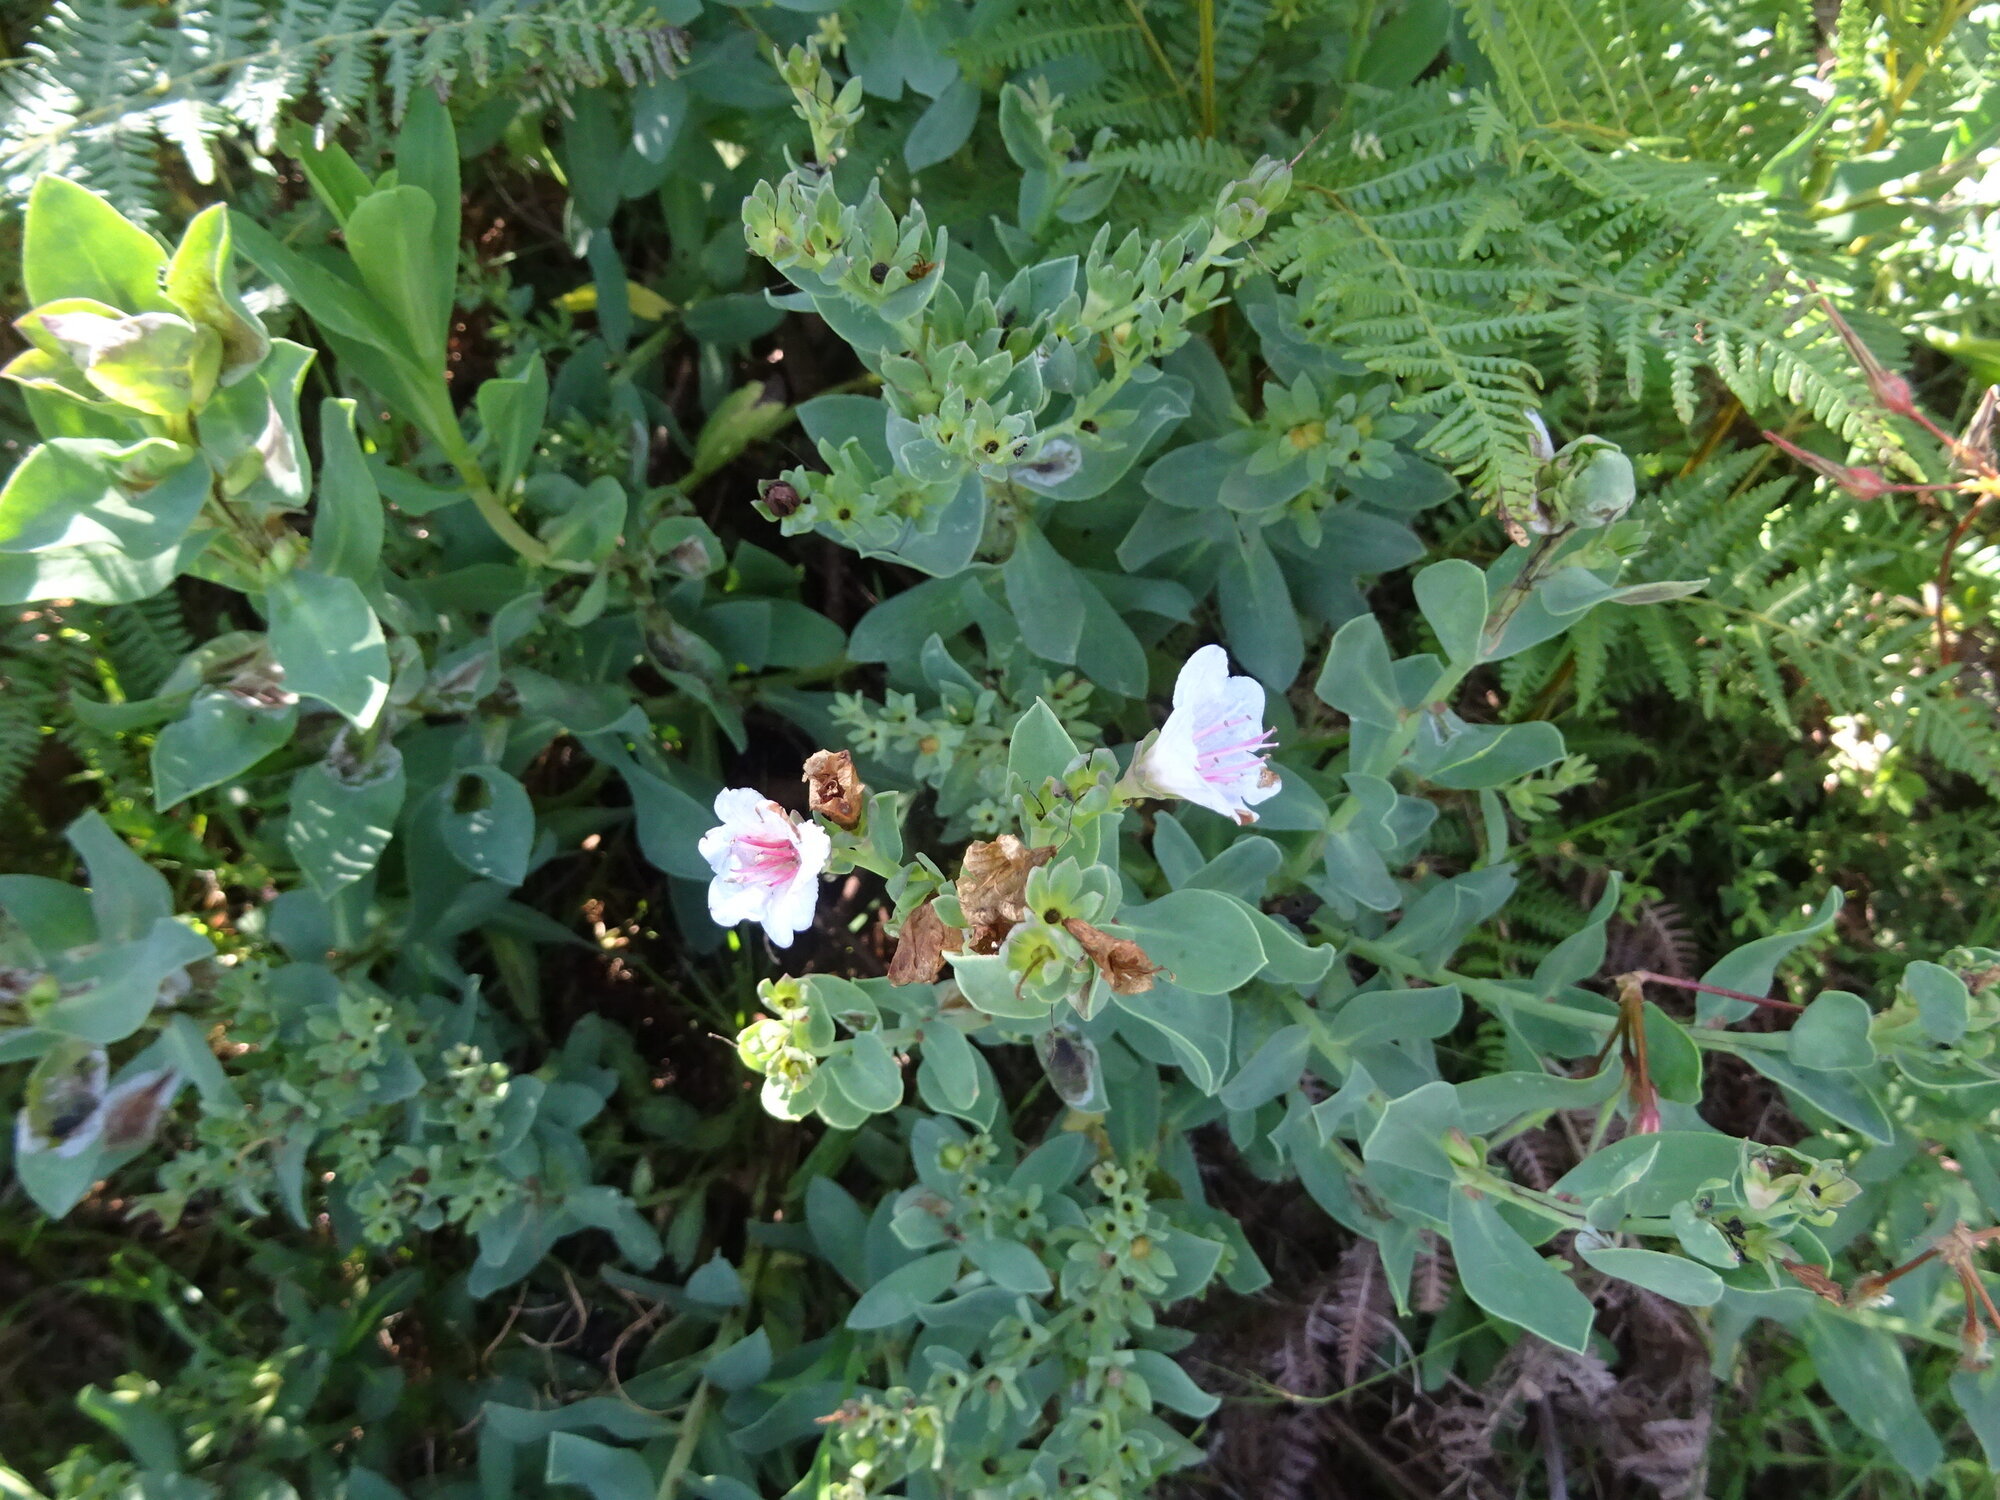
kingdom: Plantae
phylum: Tracheophyta
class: Magnoliopsida
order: Boraginales
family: Boraginaceae
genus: Lobostemon
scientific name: Lobostemon glaucophyllus
